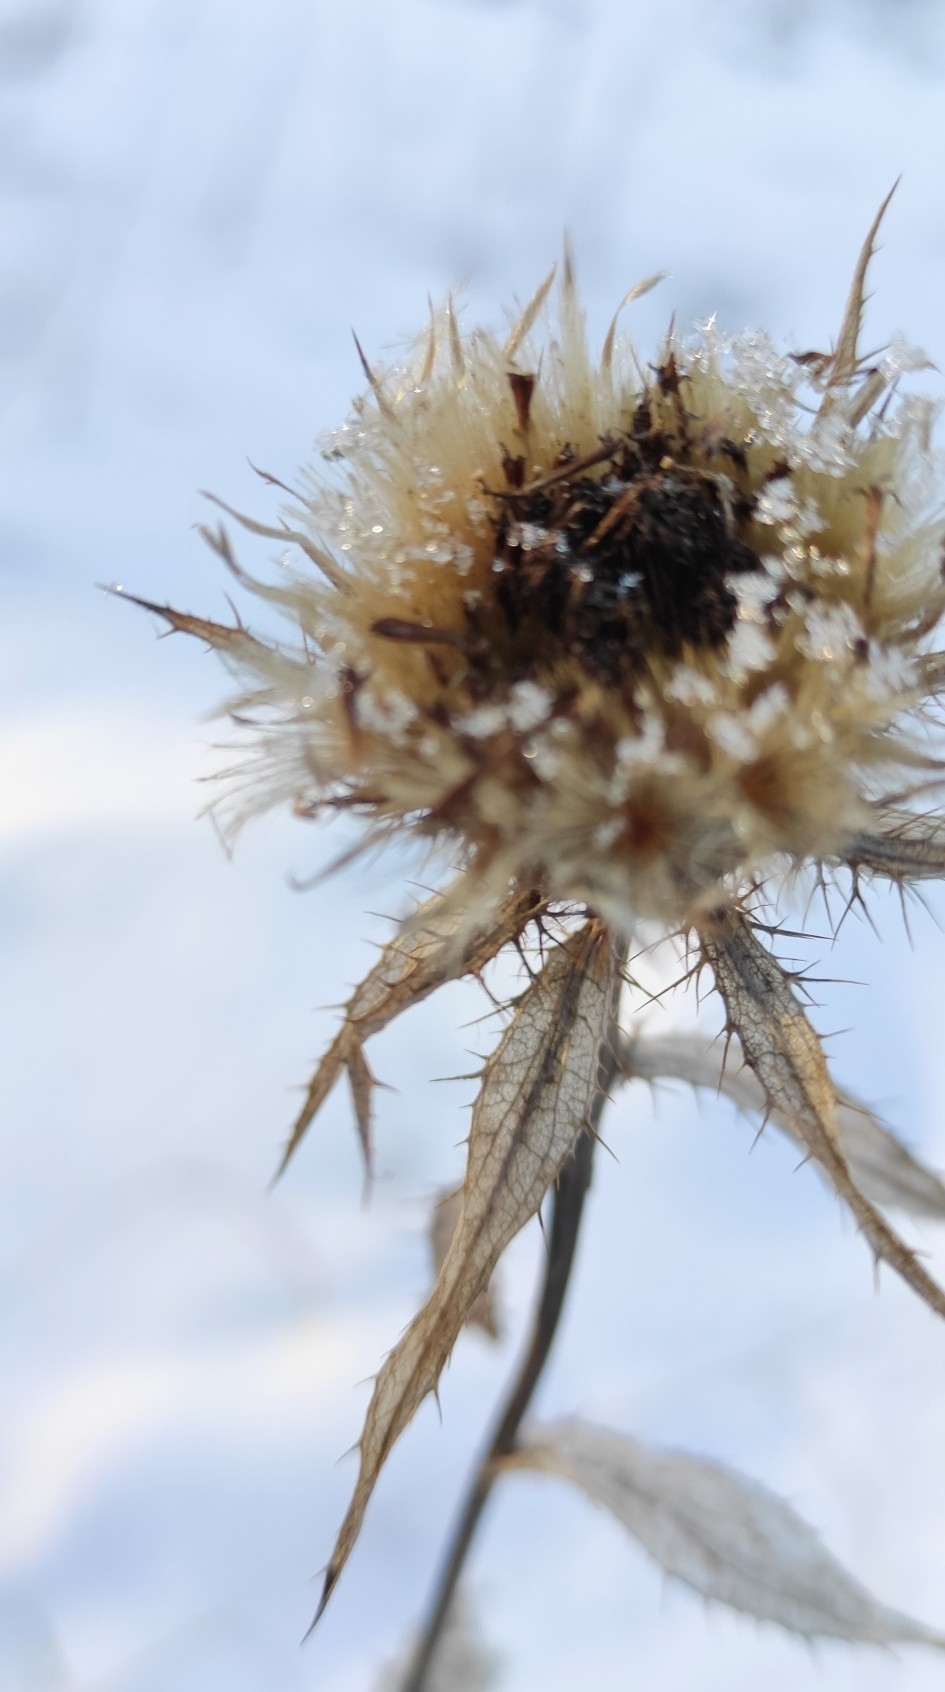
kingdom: Plantae
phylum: Tracheophyta
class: Magnoliopsida
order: Asterales
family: Asteraceae
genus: Carlina
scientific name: Carlina biebersteinii
